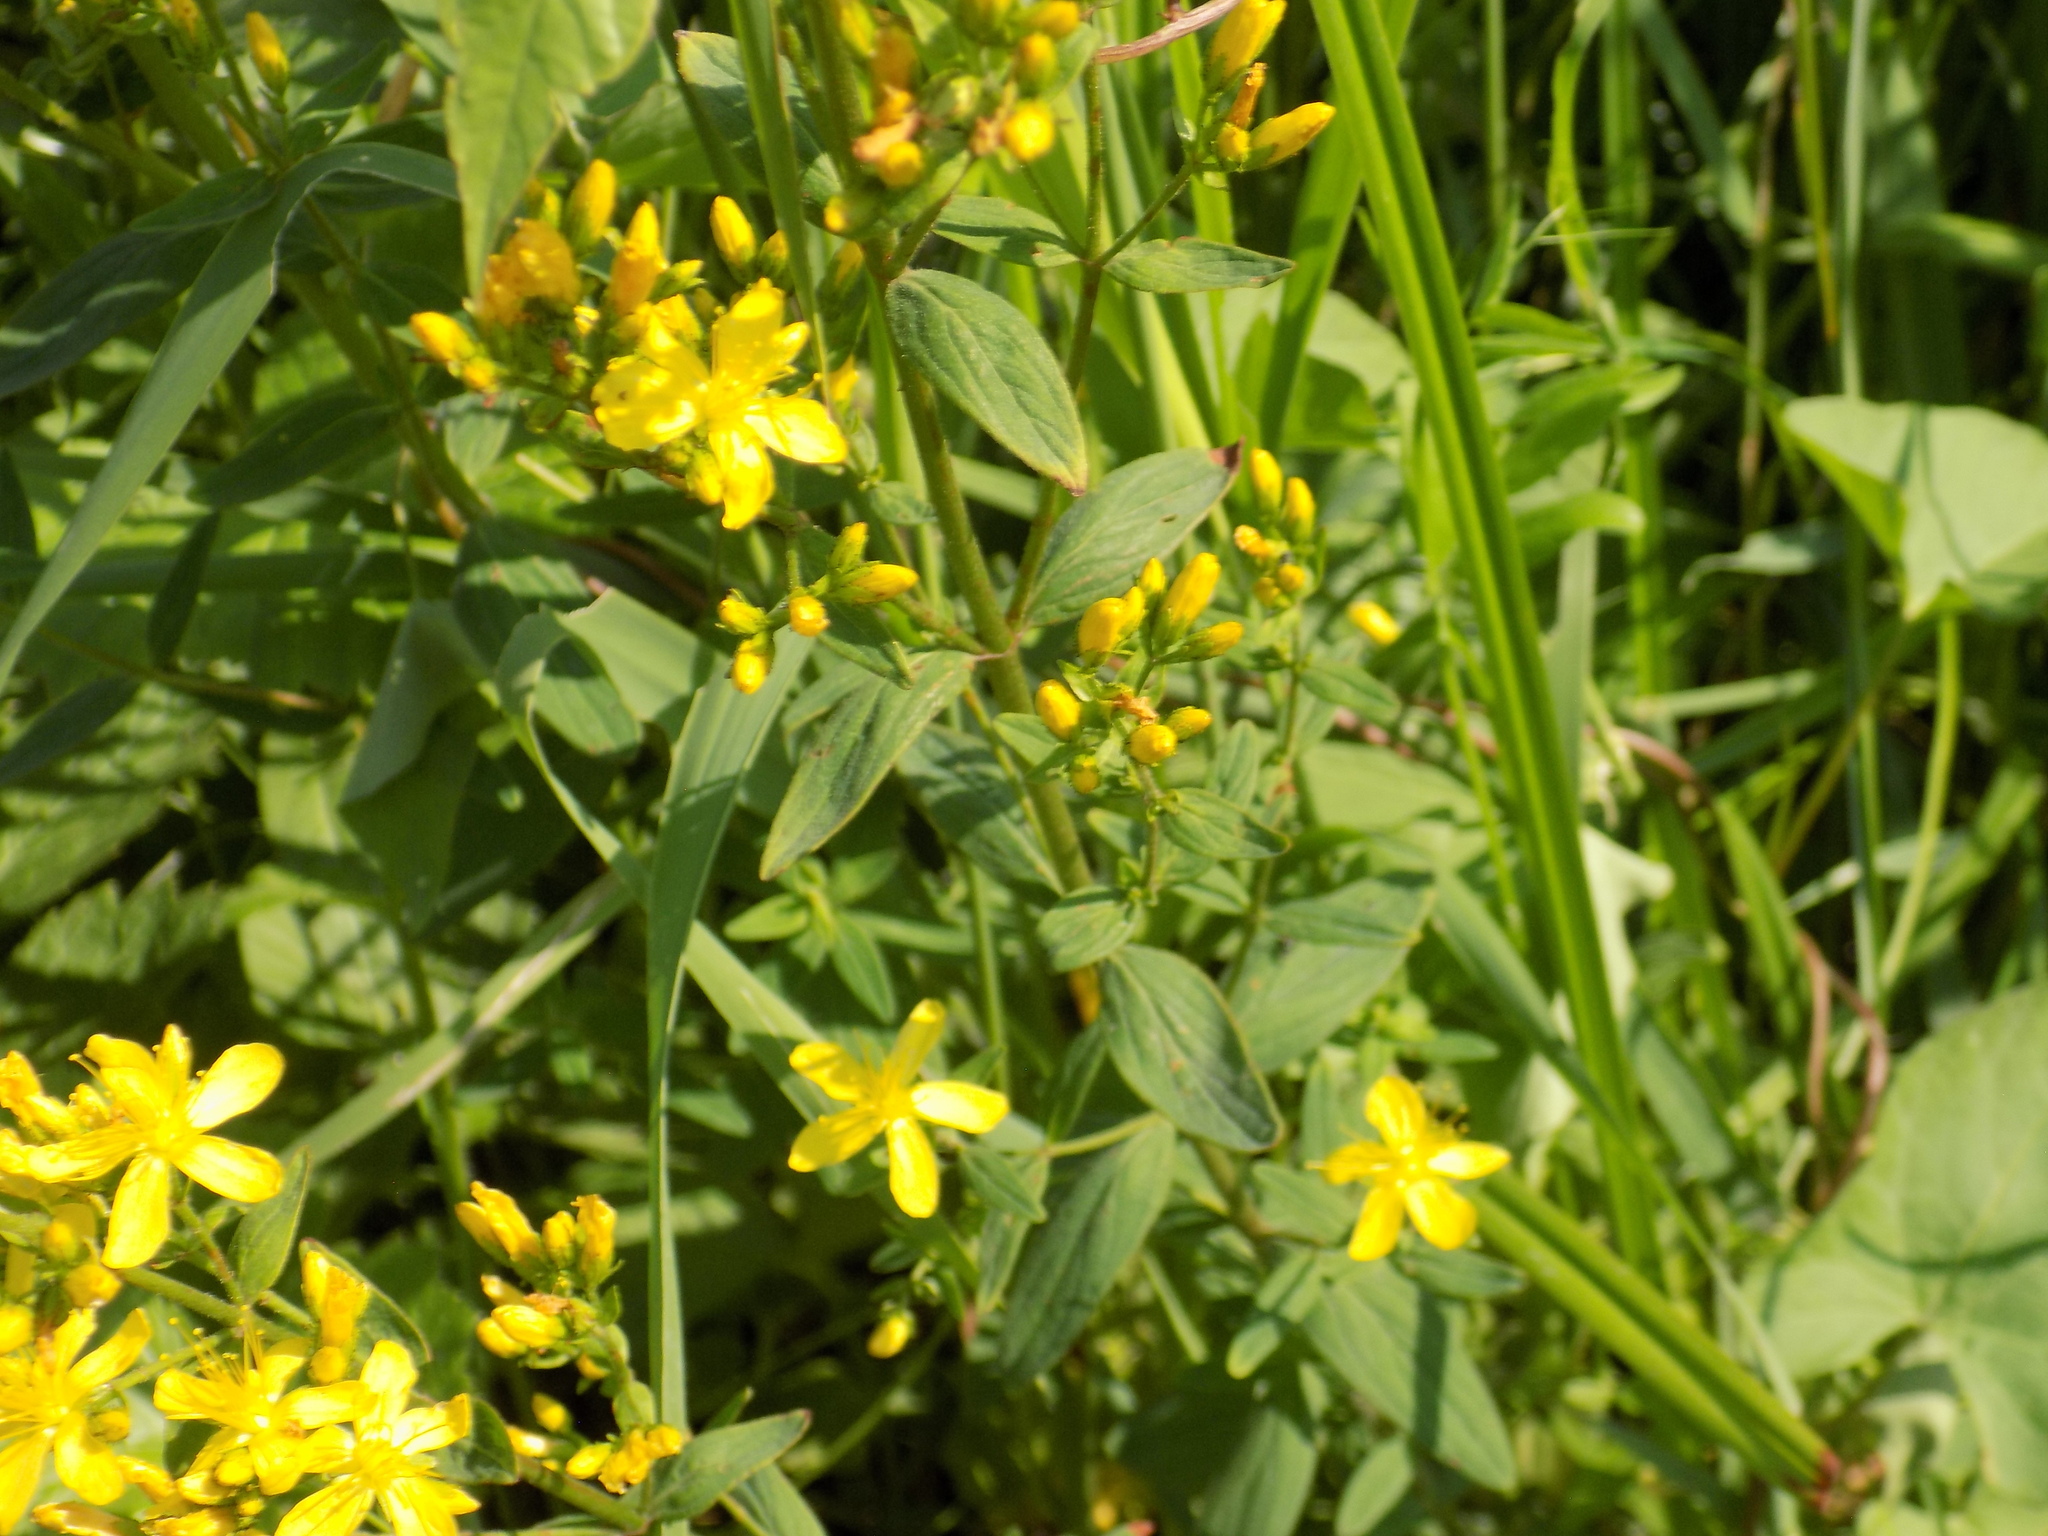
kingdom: Plantae
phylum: Tracheophyta
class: Magnoliopsida
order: Malpighiales
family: Hypericaceae
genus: Hypericum
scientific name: Hypericum hirsutum
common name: Hairy st. john's-wort
